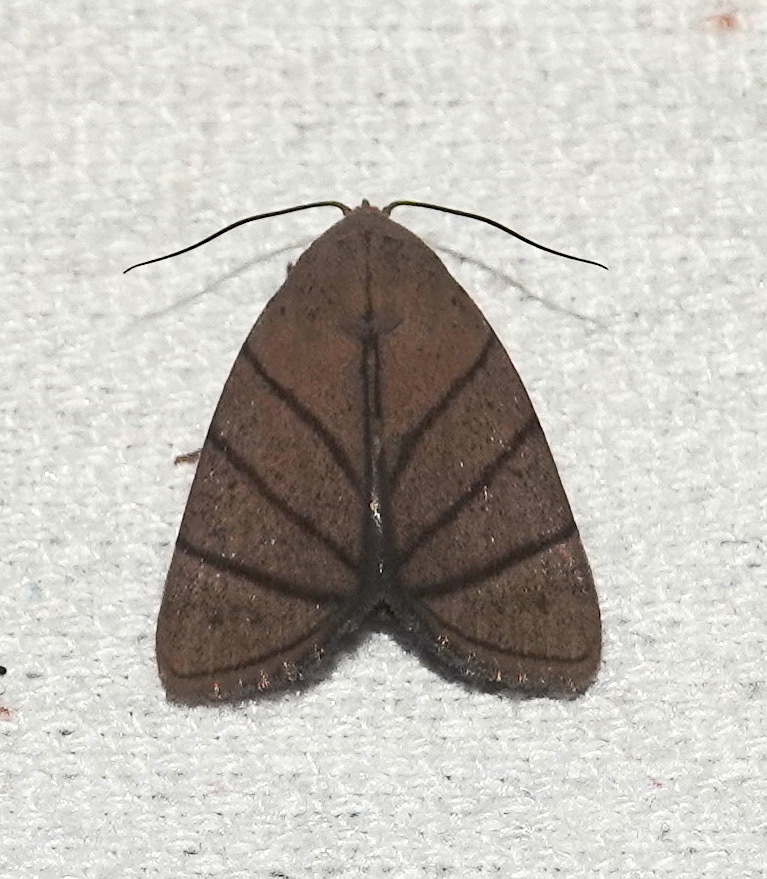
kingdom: Animalia
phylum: Arthropoda
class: Insecta
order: Lepidoptera
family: Erebidae
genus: Calymniops
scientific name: Calymniops convergens
